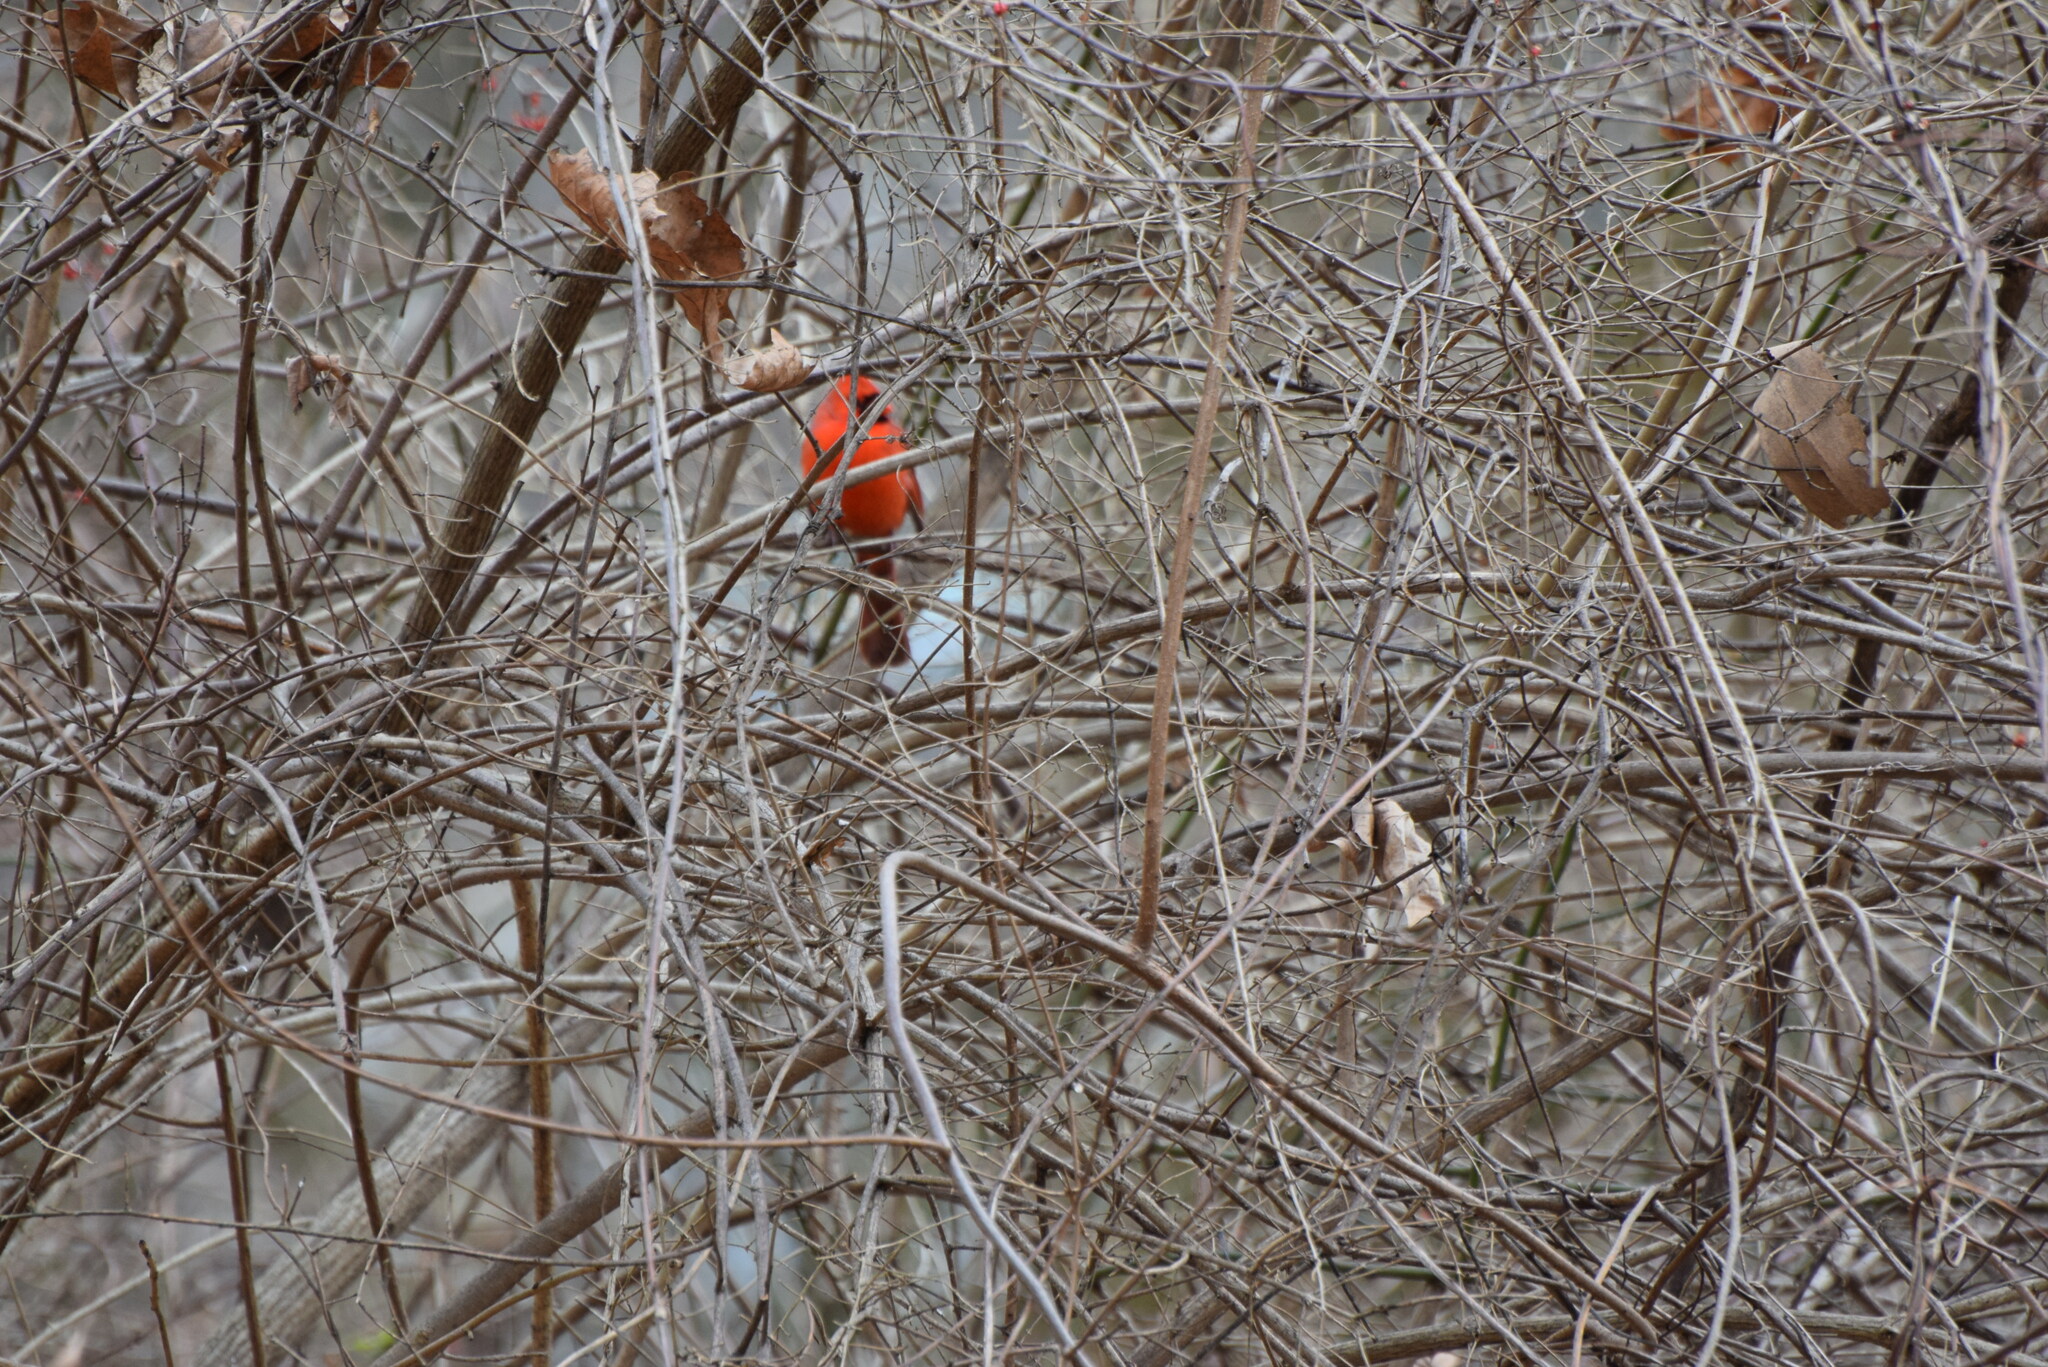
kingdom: Animalia
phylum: Chordata
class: Aves
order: Passeriformes
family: Cardinalidae
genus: Cardinalis
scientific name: Cardinalis cardinalis
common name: Northern cardinal
